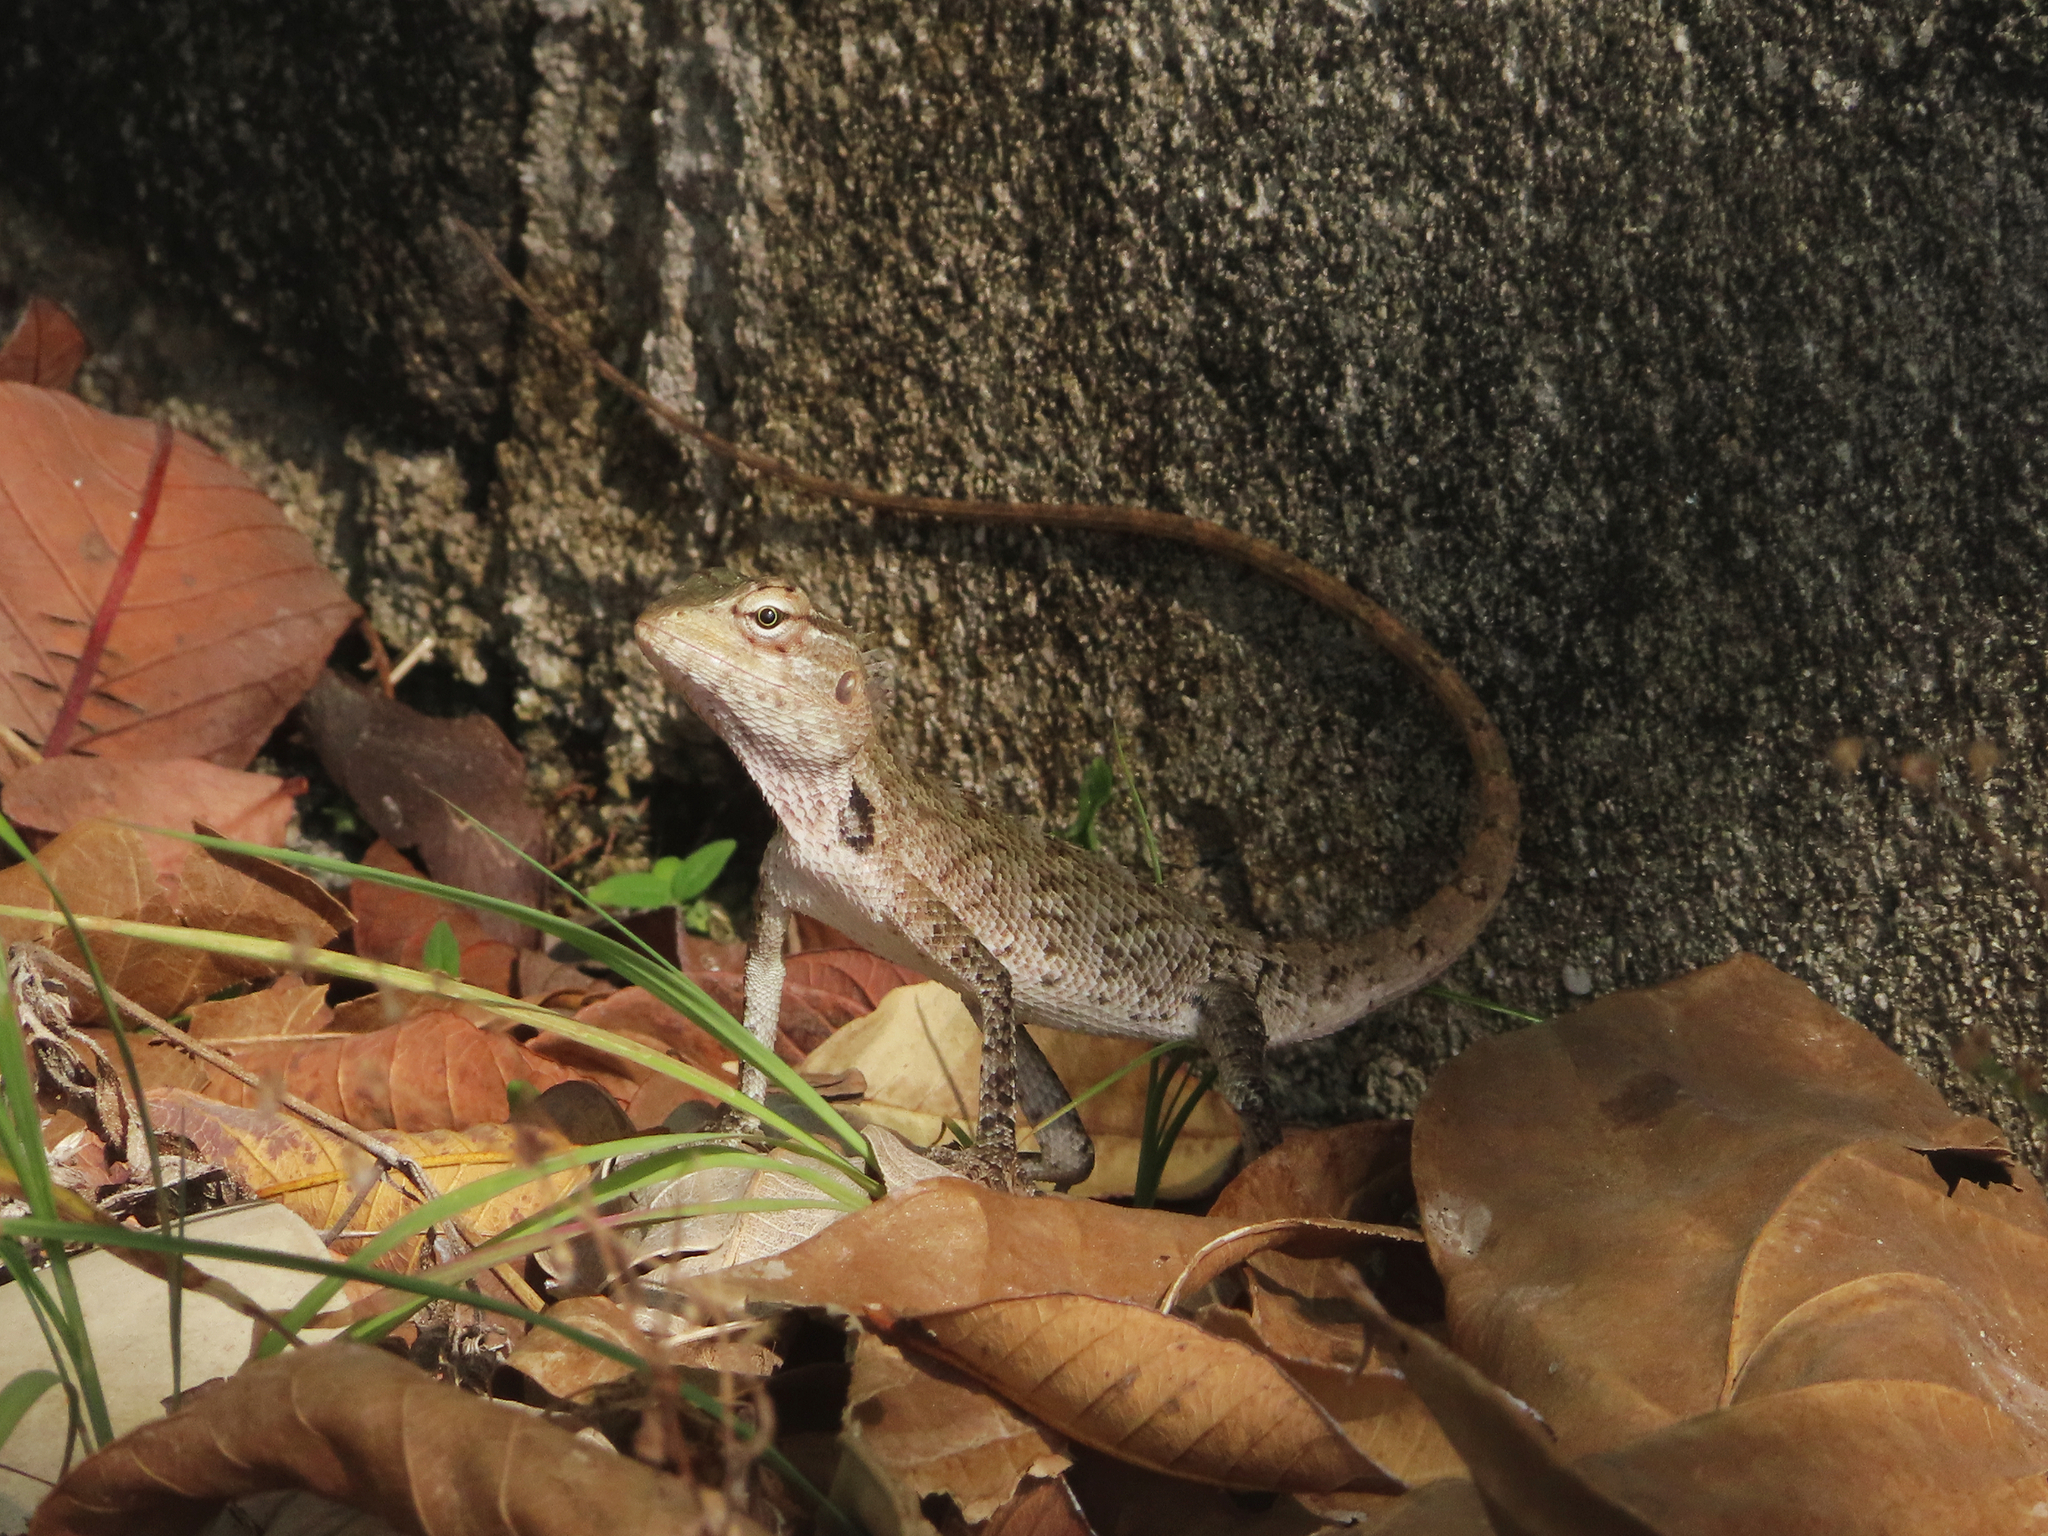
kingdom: Animalia
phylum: Chordata
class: Squamata
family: Agamidae
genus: Calotes
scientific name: Calotes versicolor
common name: Oriental garden lizard
